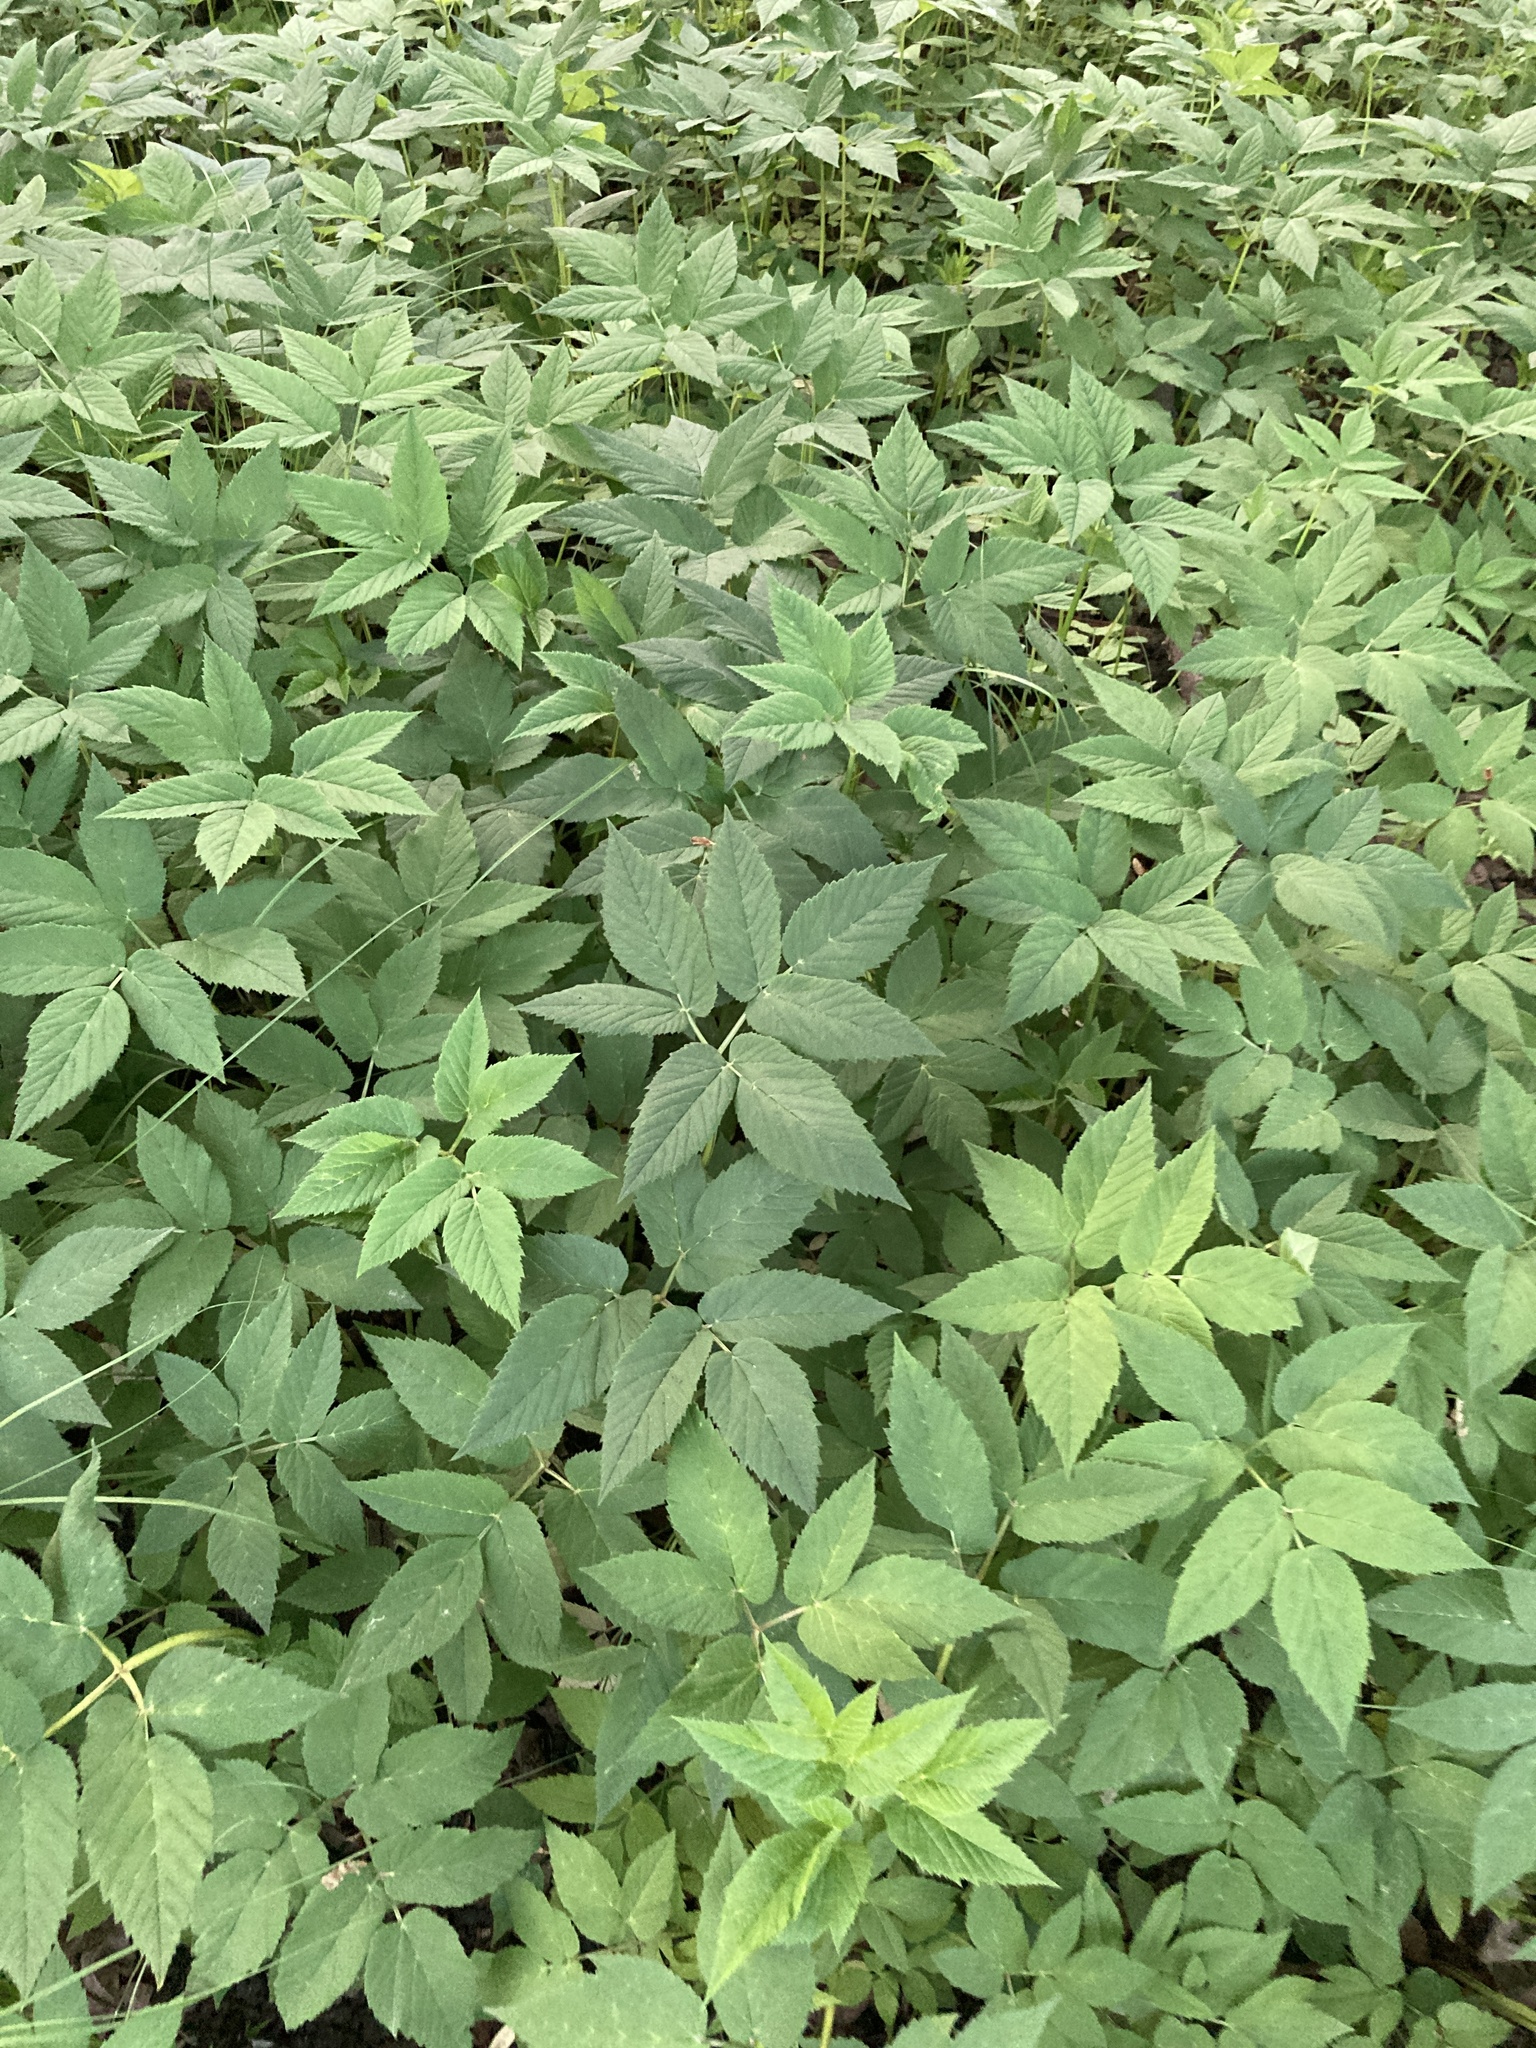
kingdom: Plantae
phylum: Tracheophyta
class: Magnoliopsida
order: Apiales
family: Apiaceae
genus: Aegopodium
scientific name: Aegopodium podagraria
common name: Ground-elder
